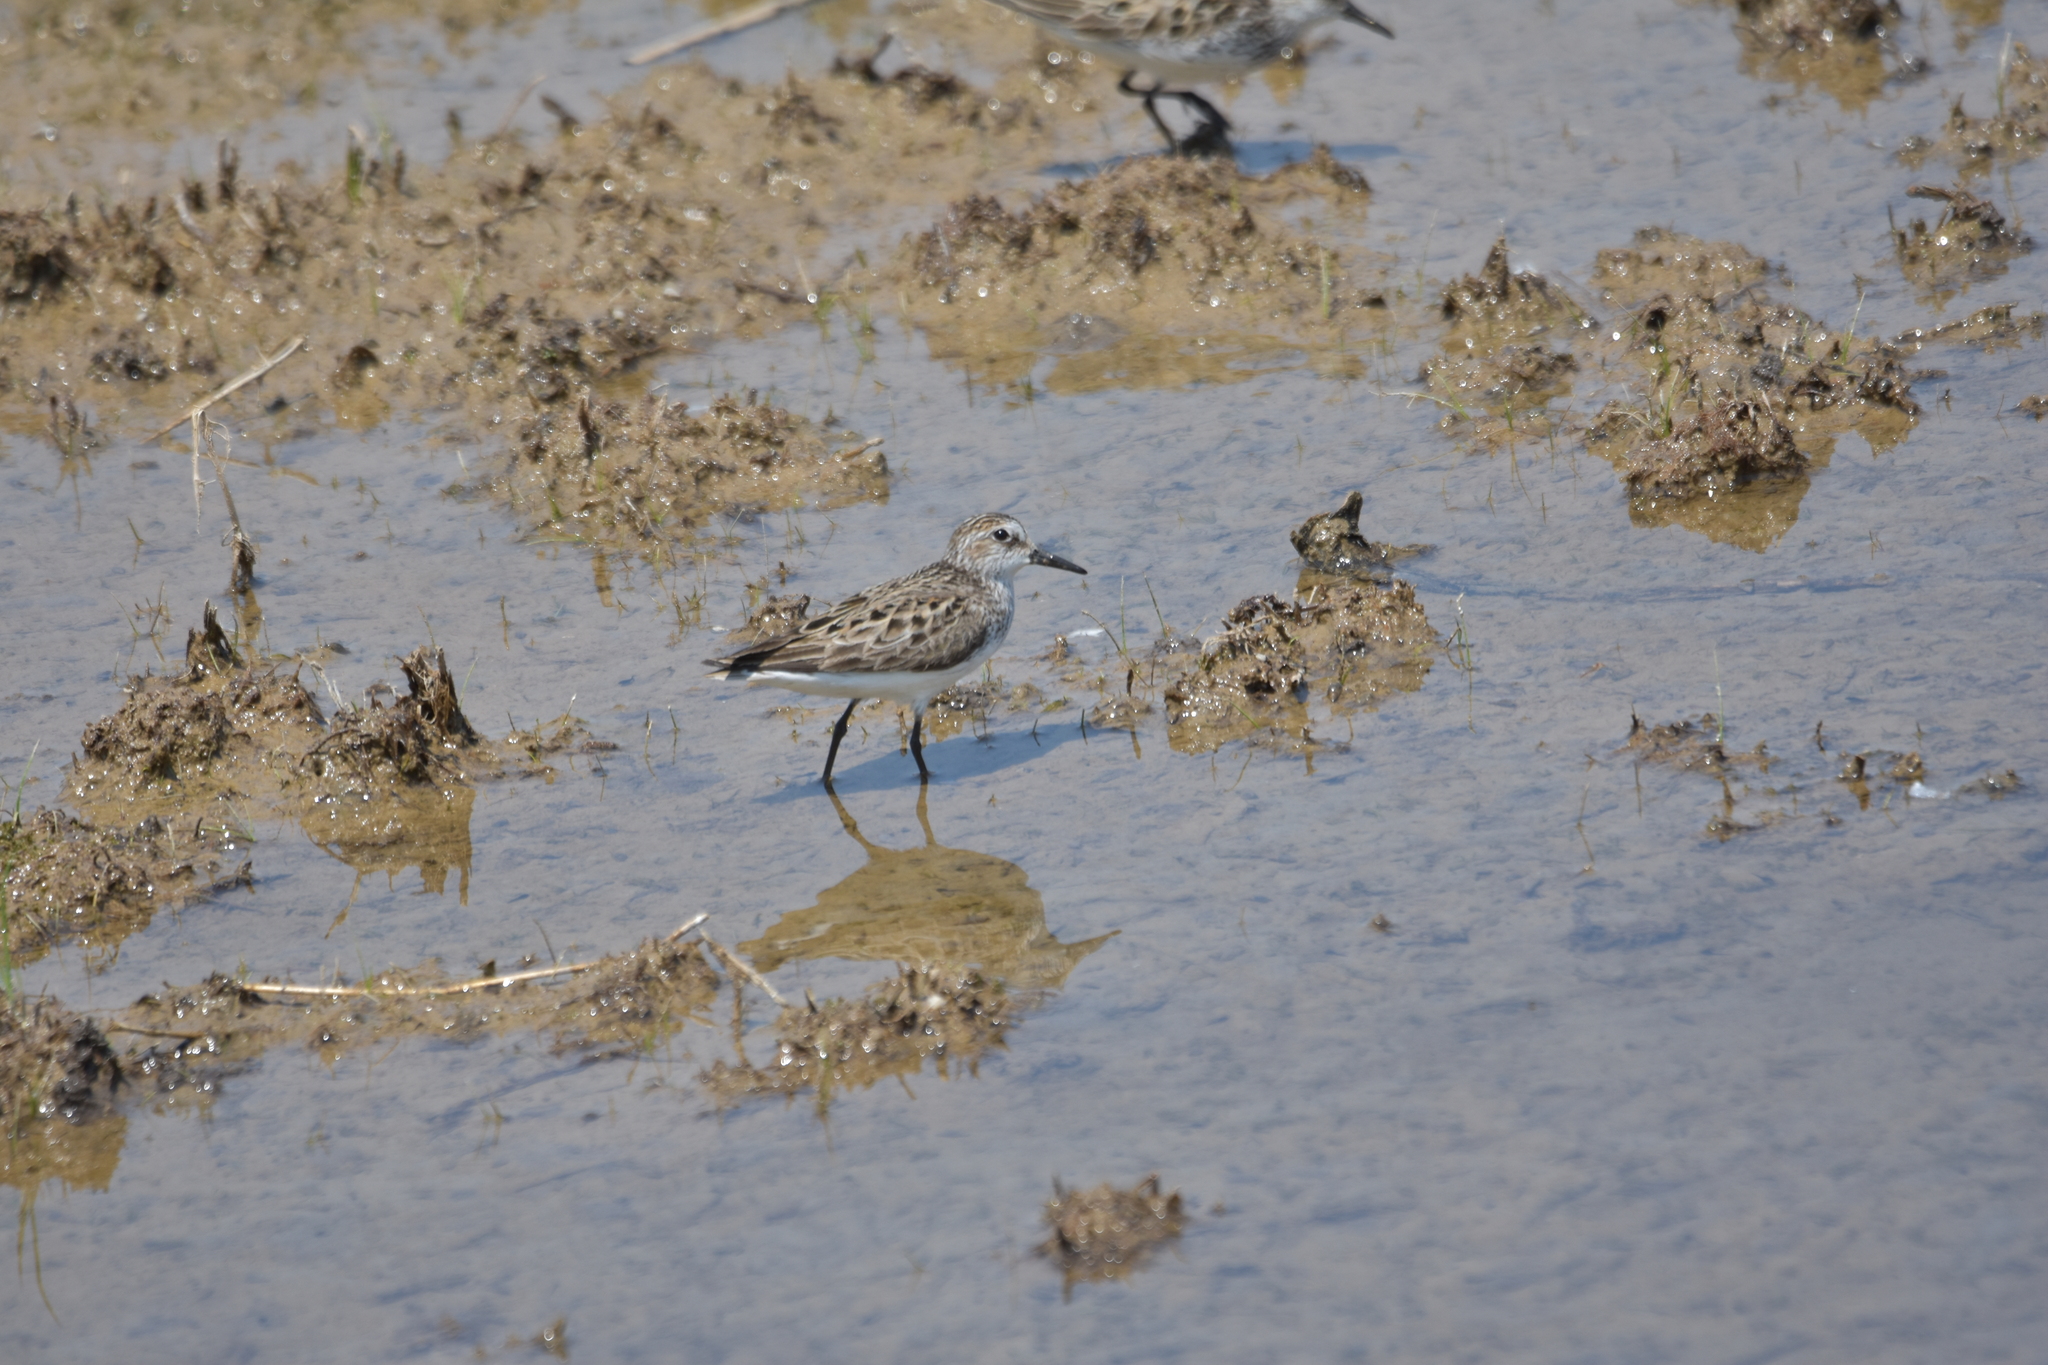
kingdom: Animalia
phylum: Chordata
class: Aves
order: Charadriiformes
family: Scolopacidae
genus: Calidris
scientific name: Calidris pusilla
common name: Semipalmated sandpiper
